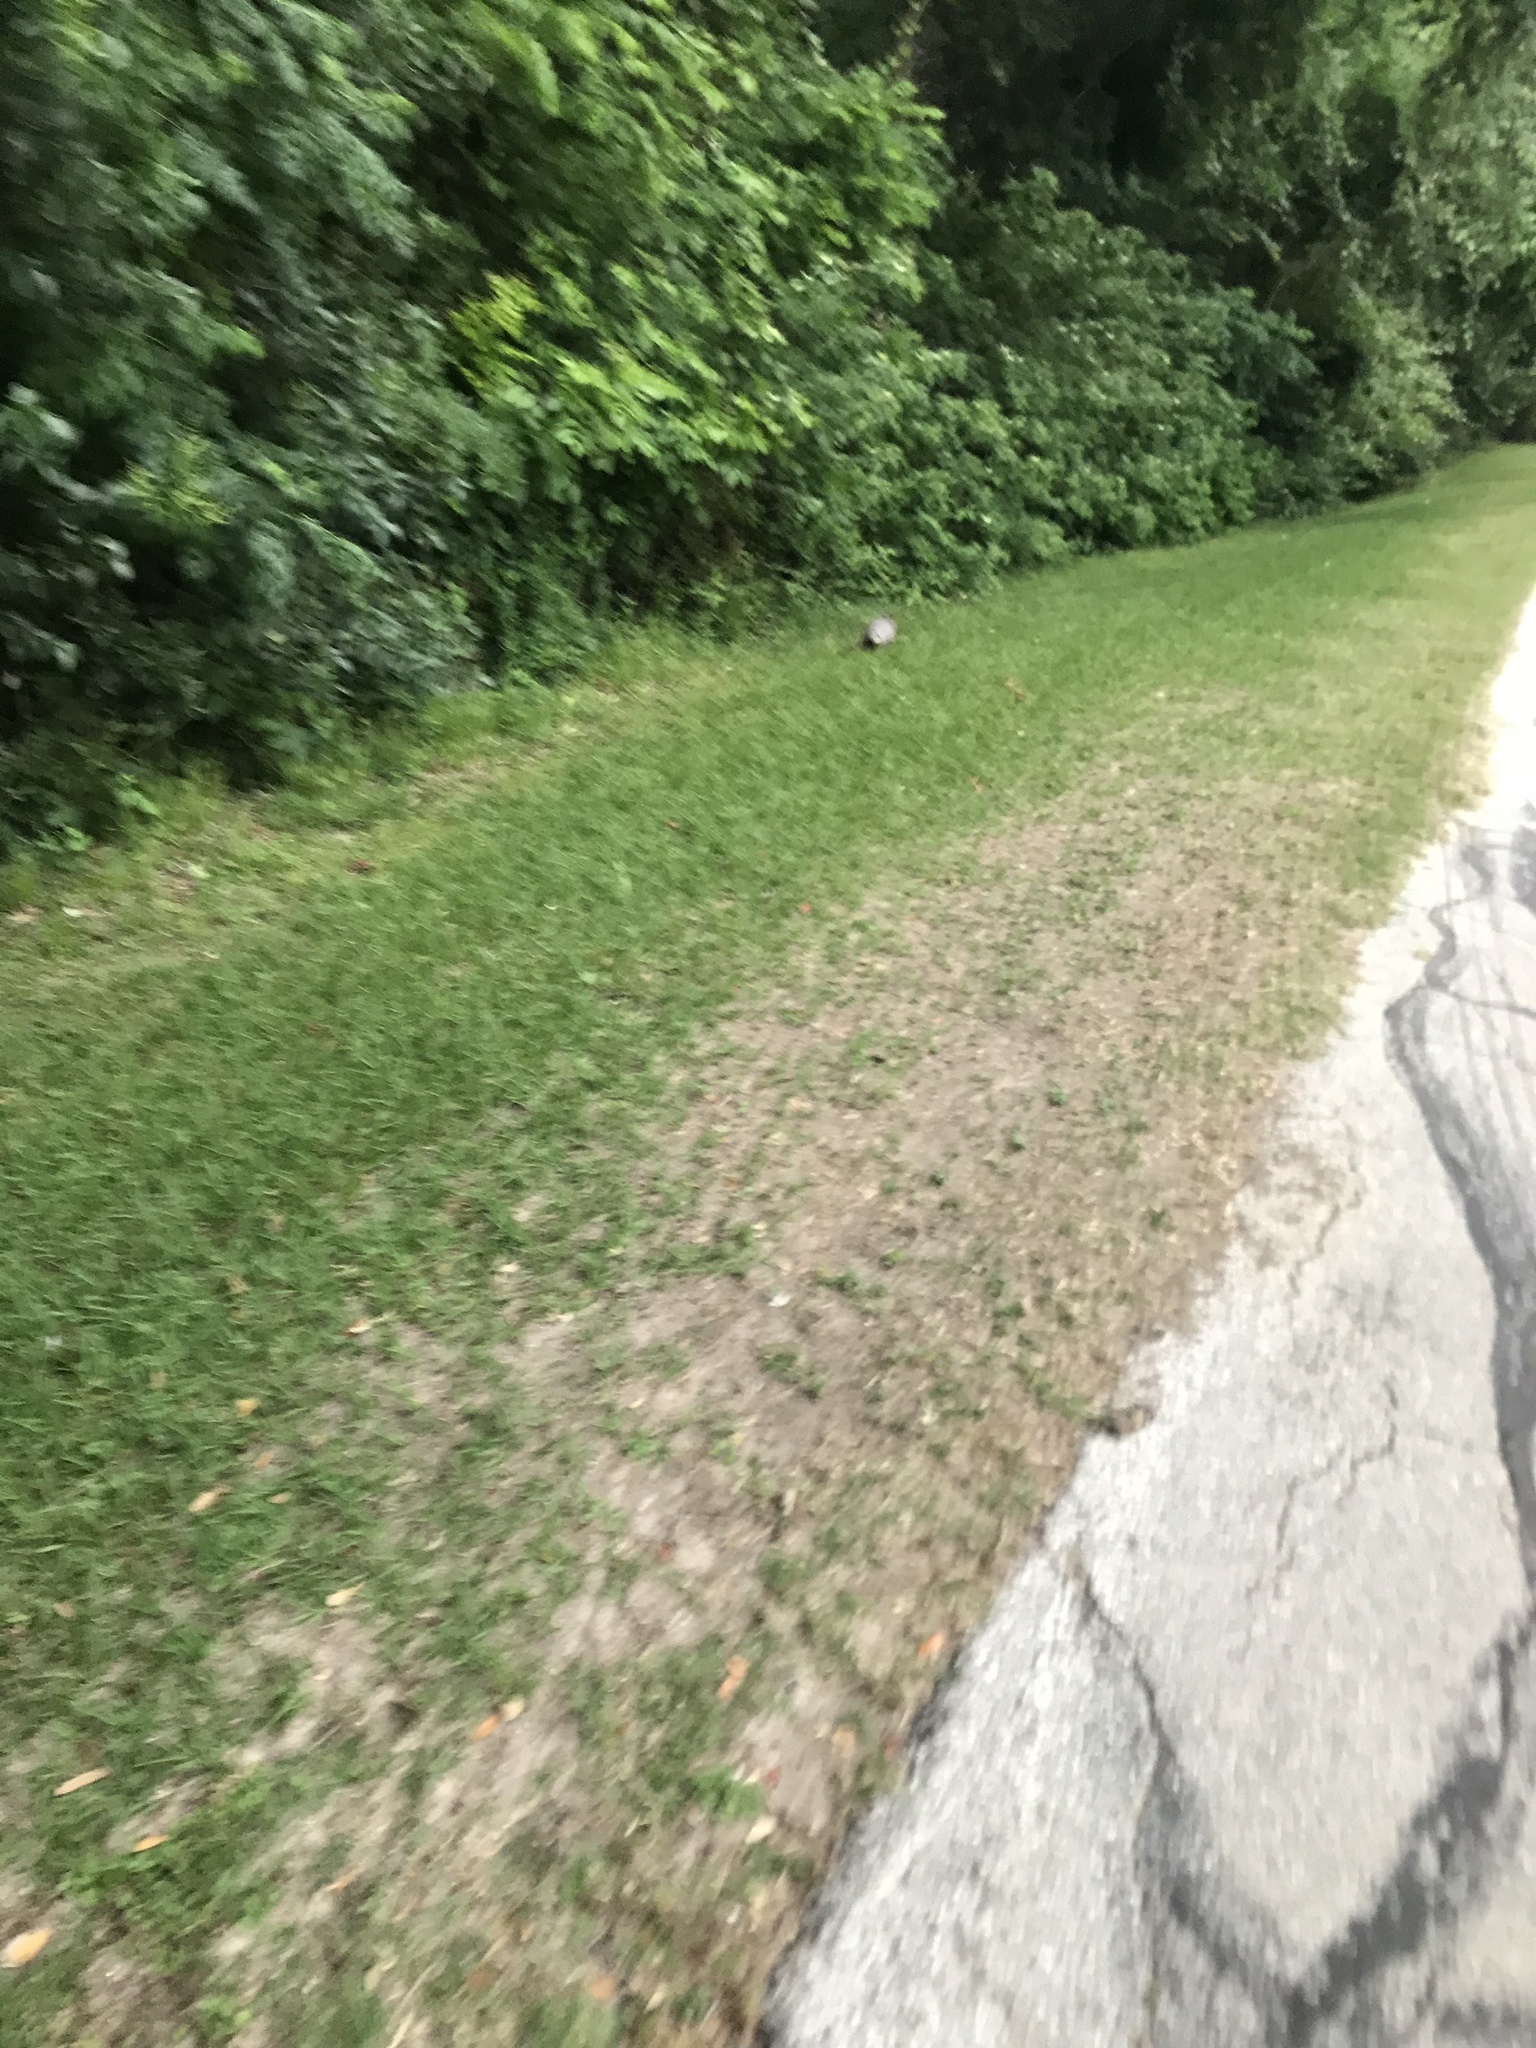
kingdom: Animalia
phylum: Chordata
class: Mammalia
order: Cingulata
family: Dasypodidae
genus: Dasypus
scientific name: Dasypus novemcinctus
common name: Nine-banded armadillo
